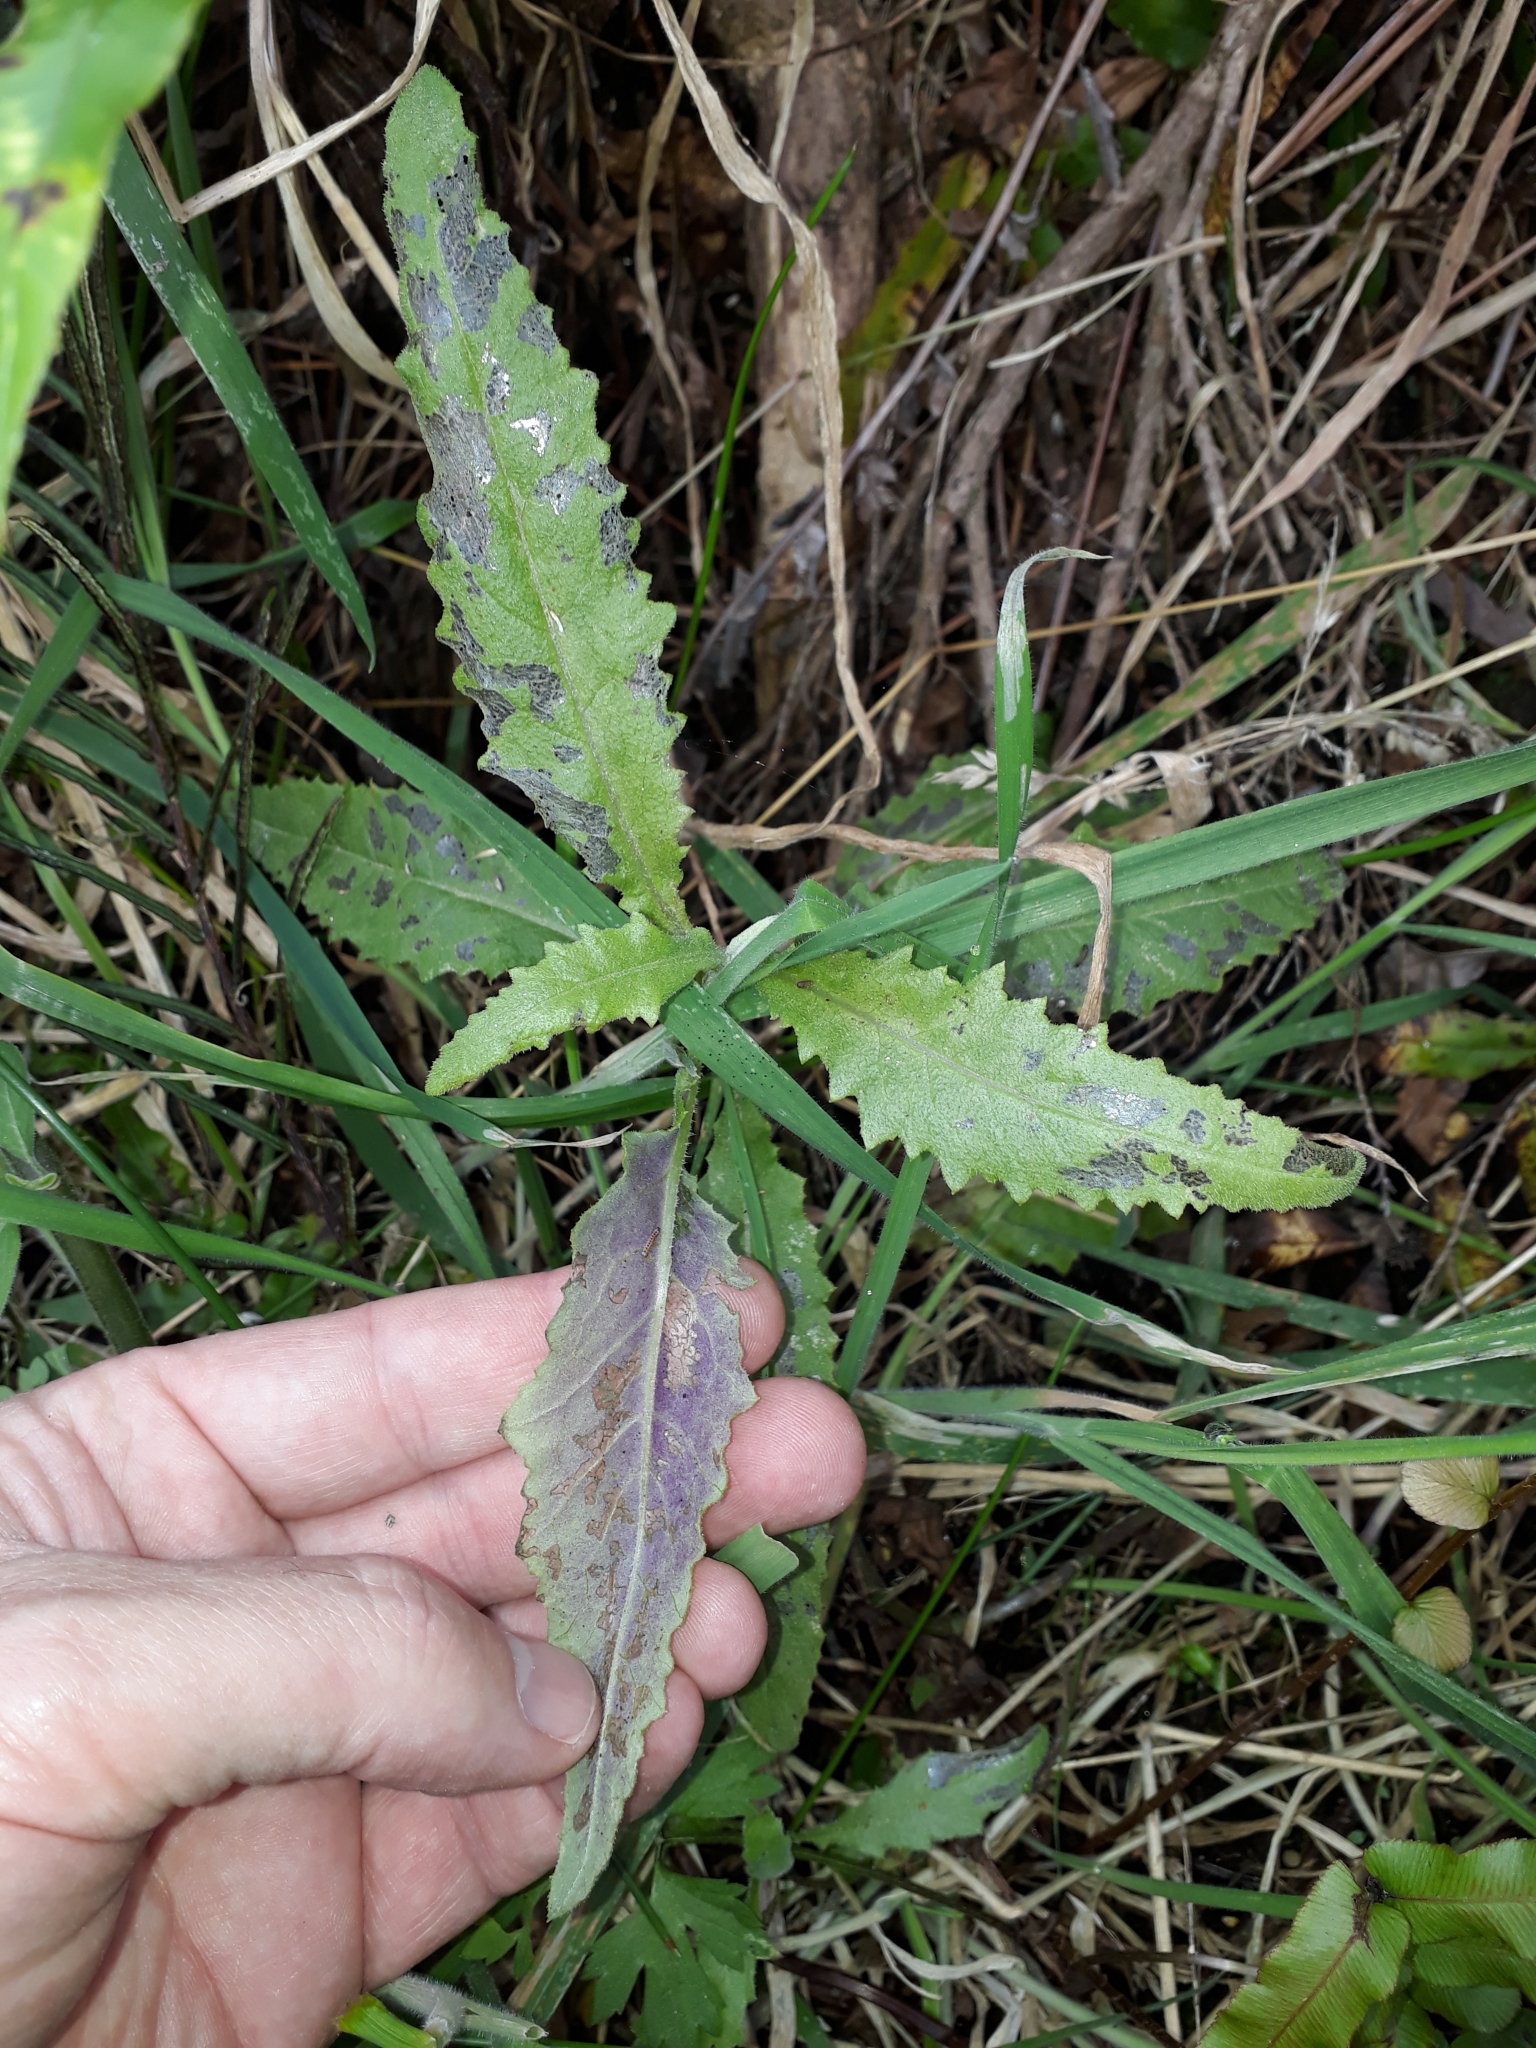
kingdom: Plantae
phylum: Tracheophyta
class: Magnoliopsida
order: Asterales
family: Asteraceae
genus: Senecio
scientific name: Senecio minimus
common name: Toothed fireweed
